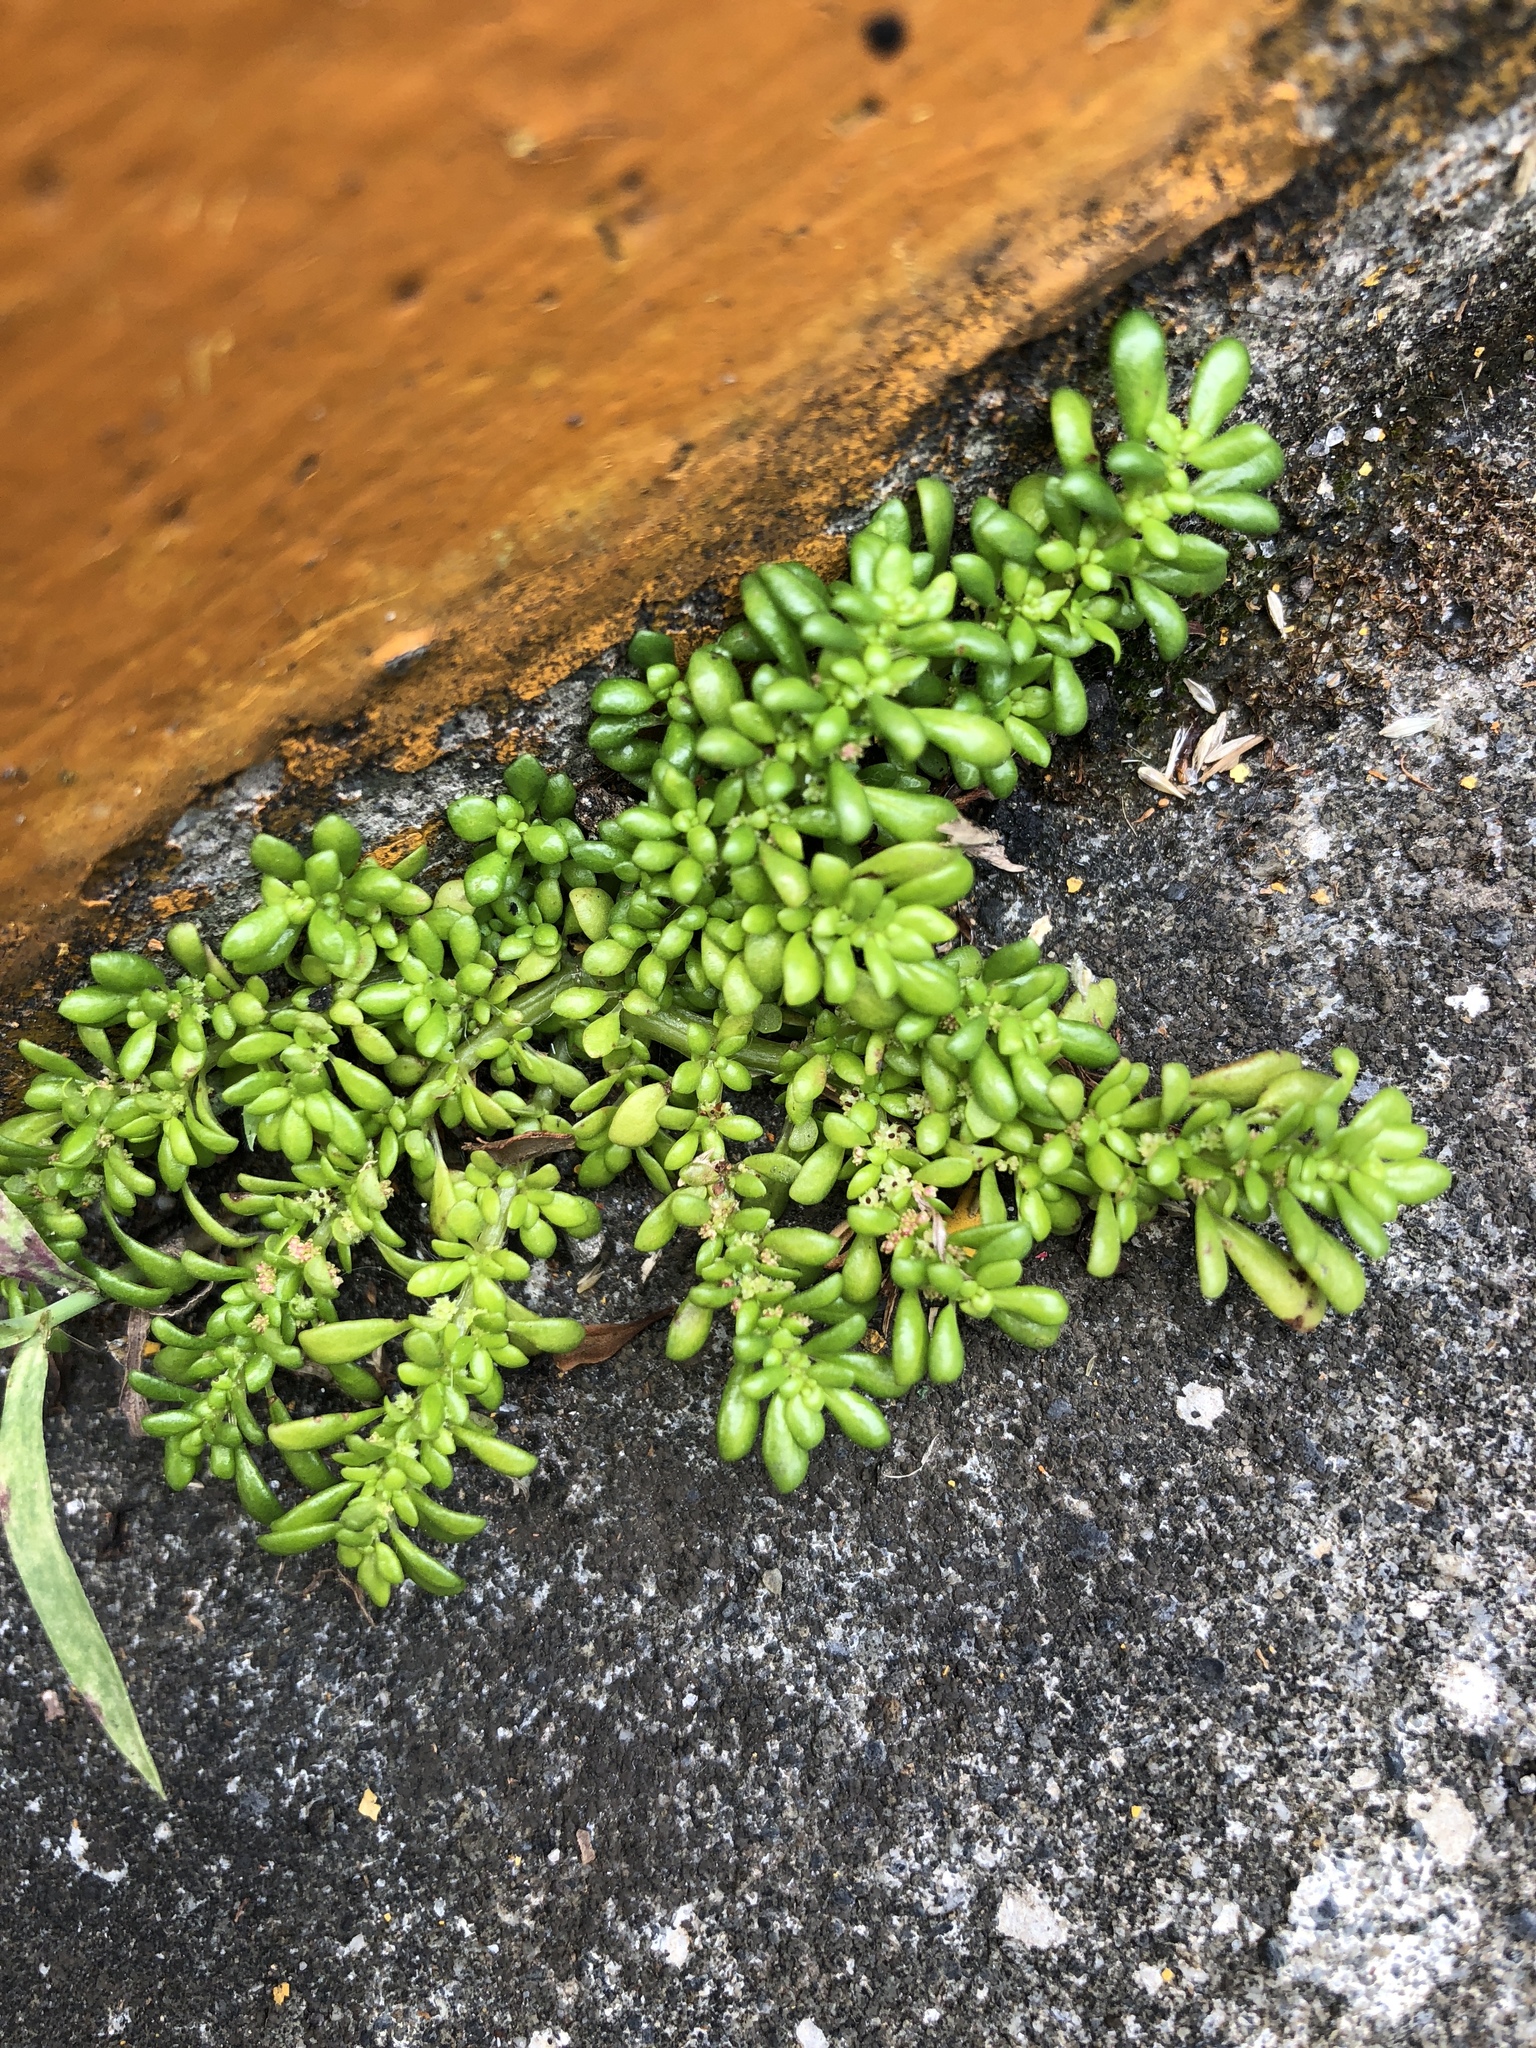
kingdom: Plantae
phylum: Tracheophyta
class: Magnoliopsida
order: Rosales
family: Urticaceae
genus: Pilea
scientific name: Pilea microphylla
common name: Artillery-plant
